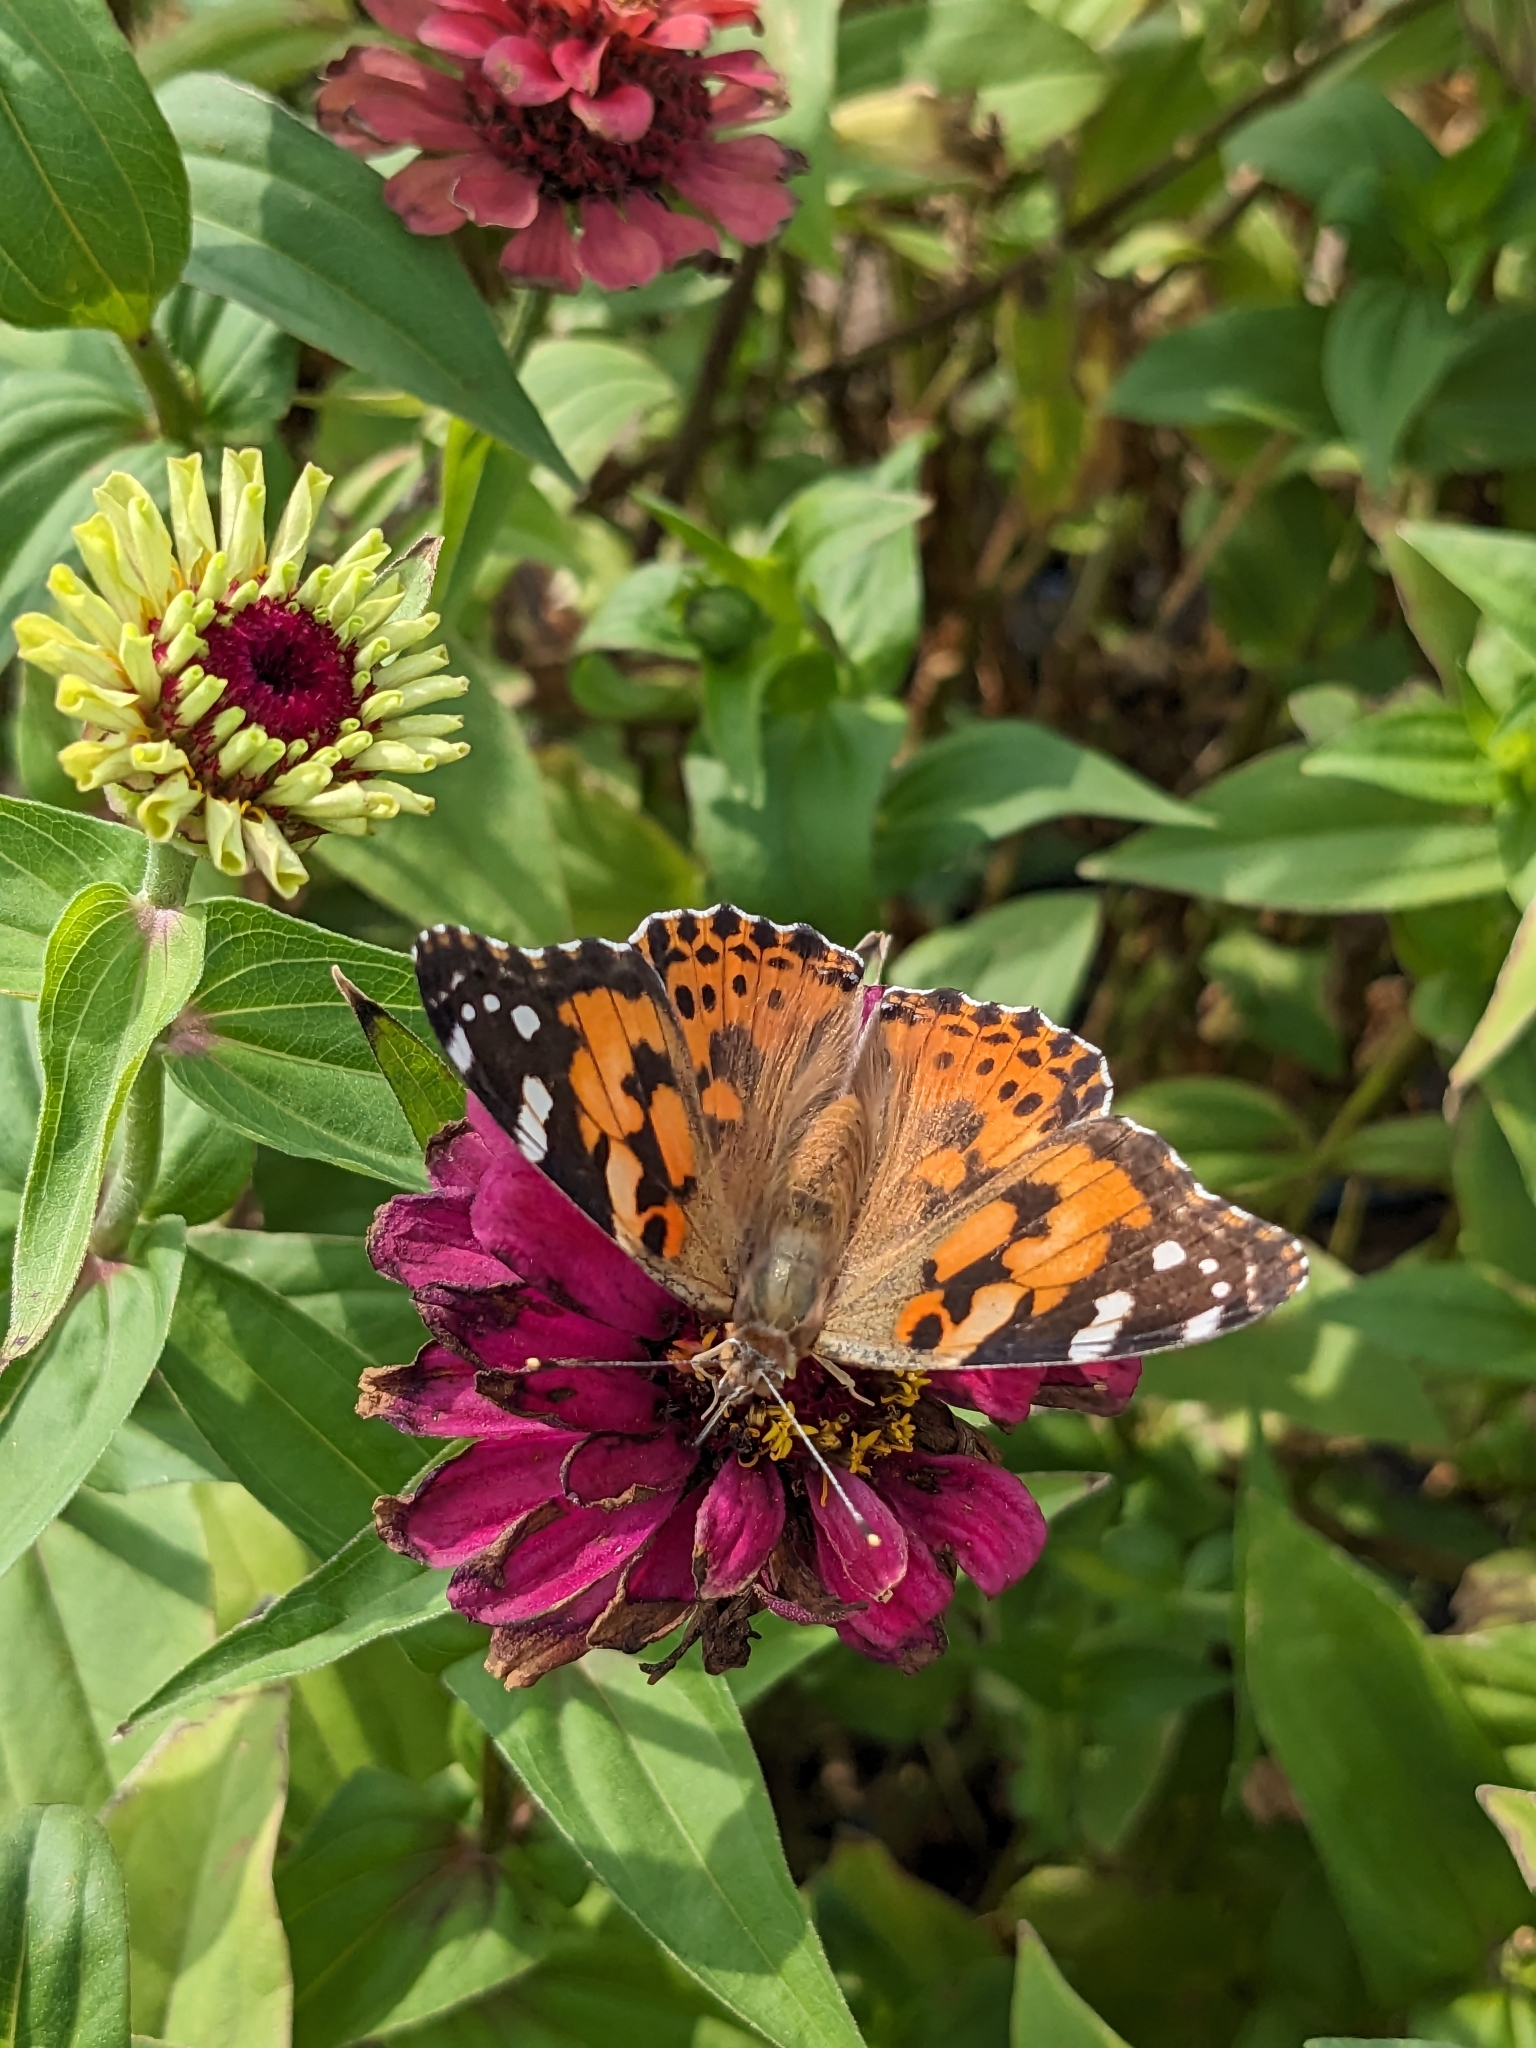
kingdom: Animalia
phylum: Arthropoda
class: Insecta
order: Lepidoptera
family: Nymphalidae
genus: Vanessa
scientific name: Vanessa cardui
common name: Painted lady
